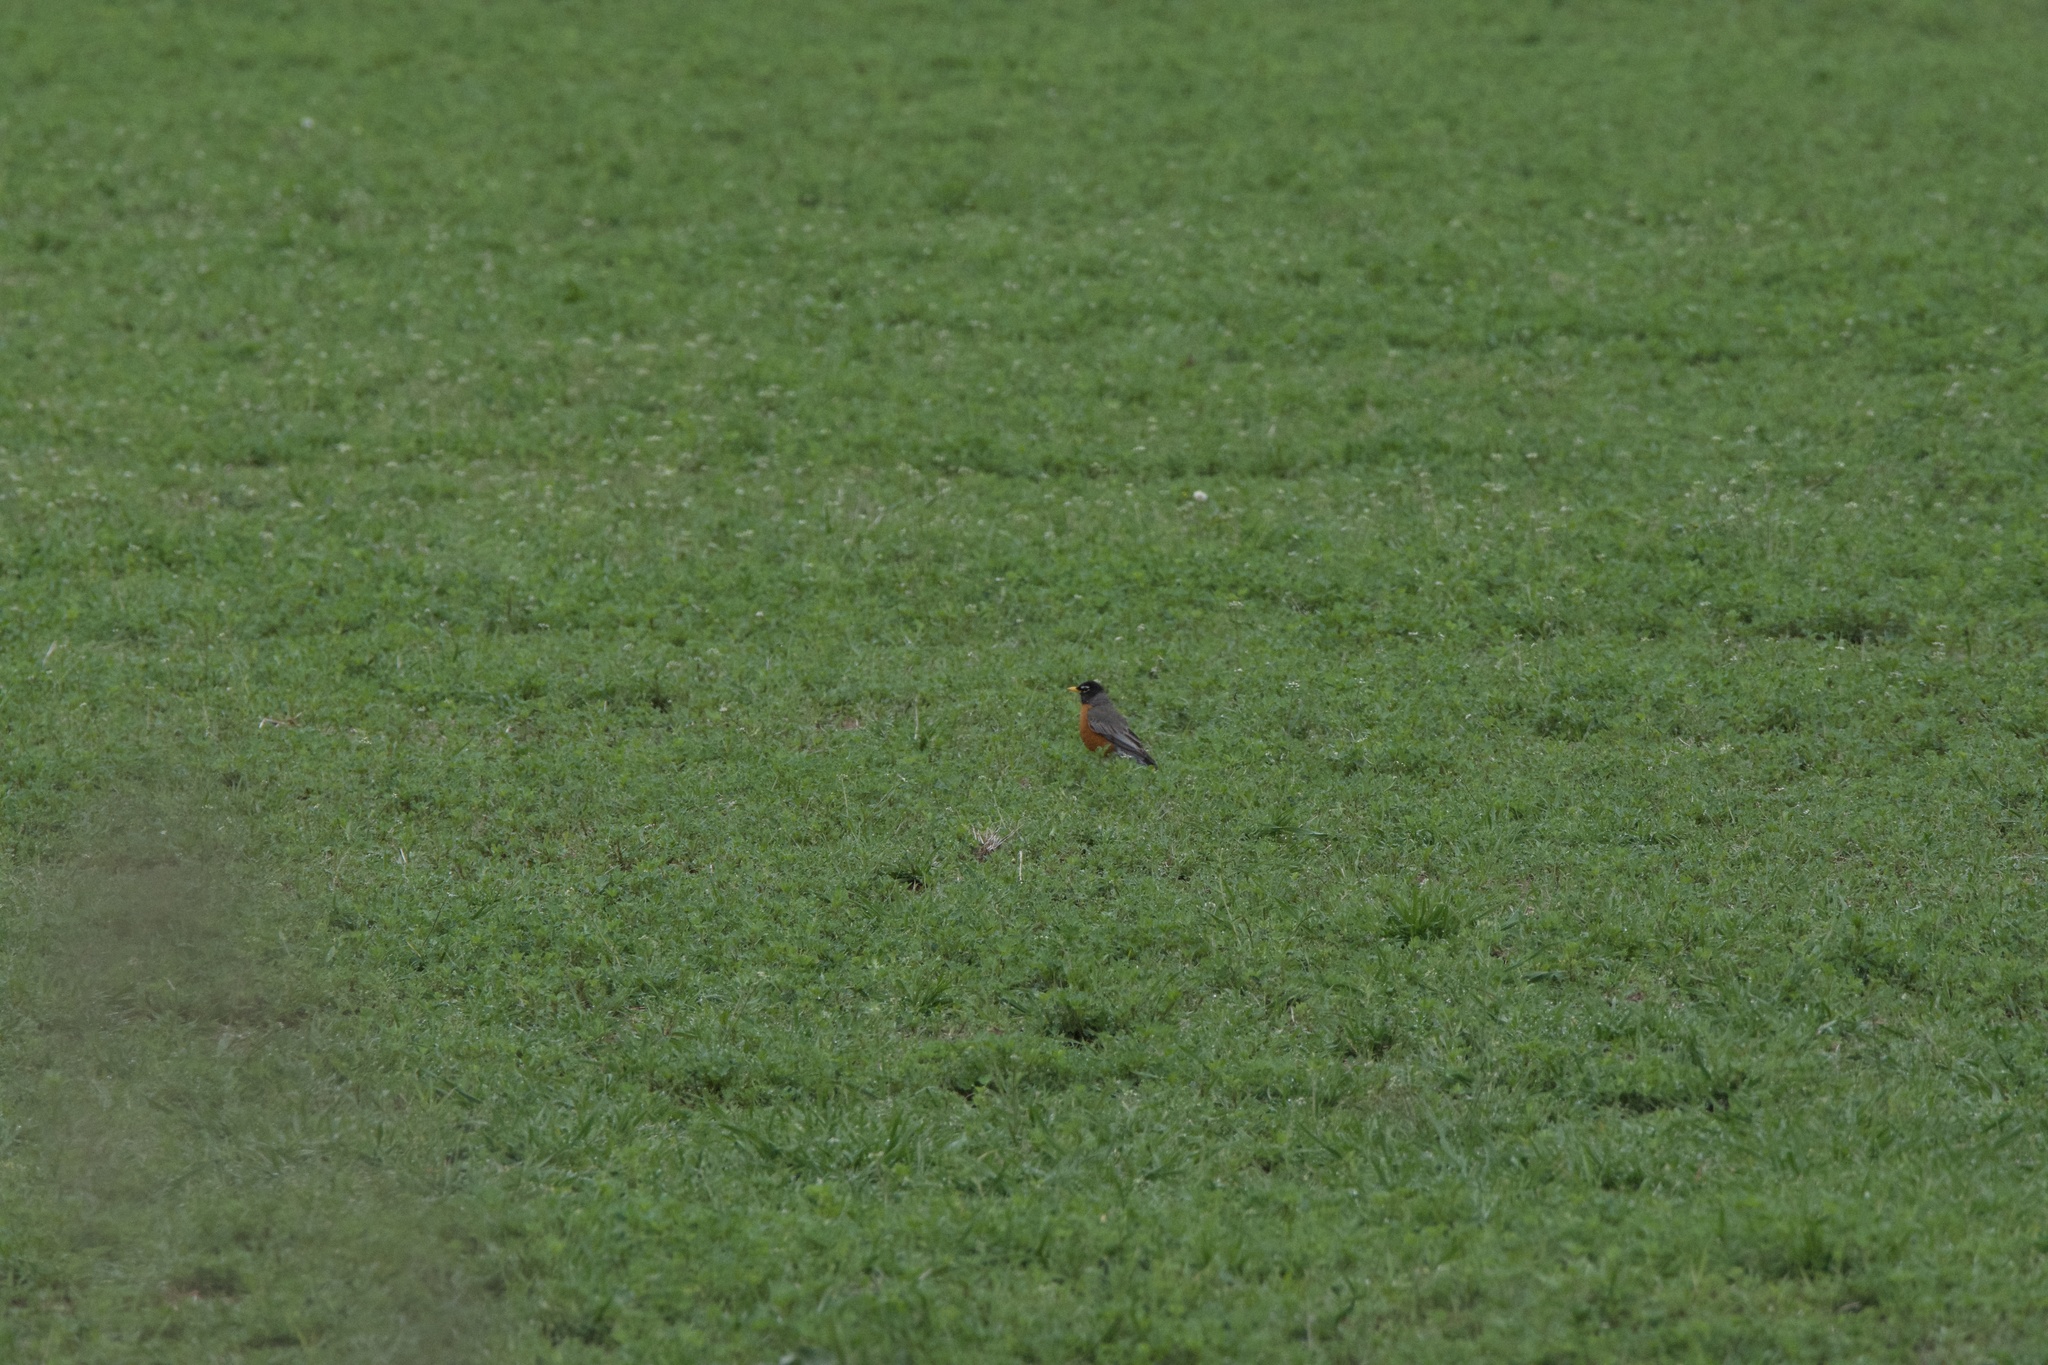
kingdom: Animalia
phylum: Chordata
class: Aves
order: Passeriformes
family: Turdidae
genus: Turdus
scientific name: Turdus migratorius
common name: American robin
